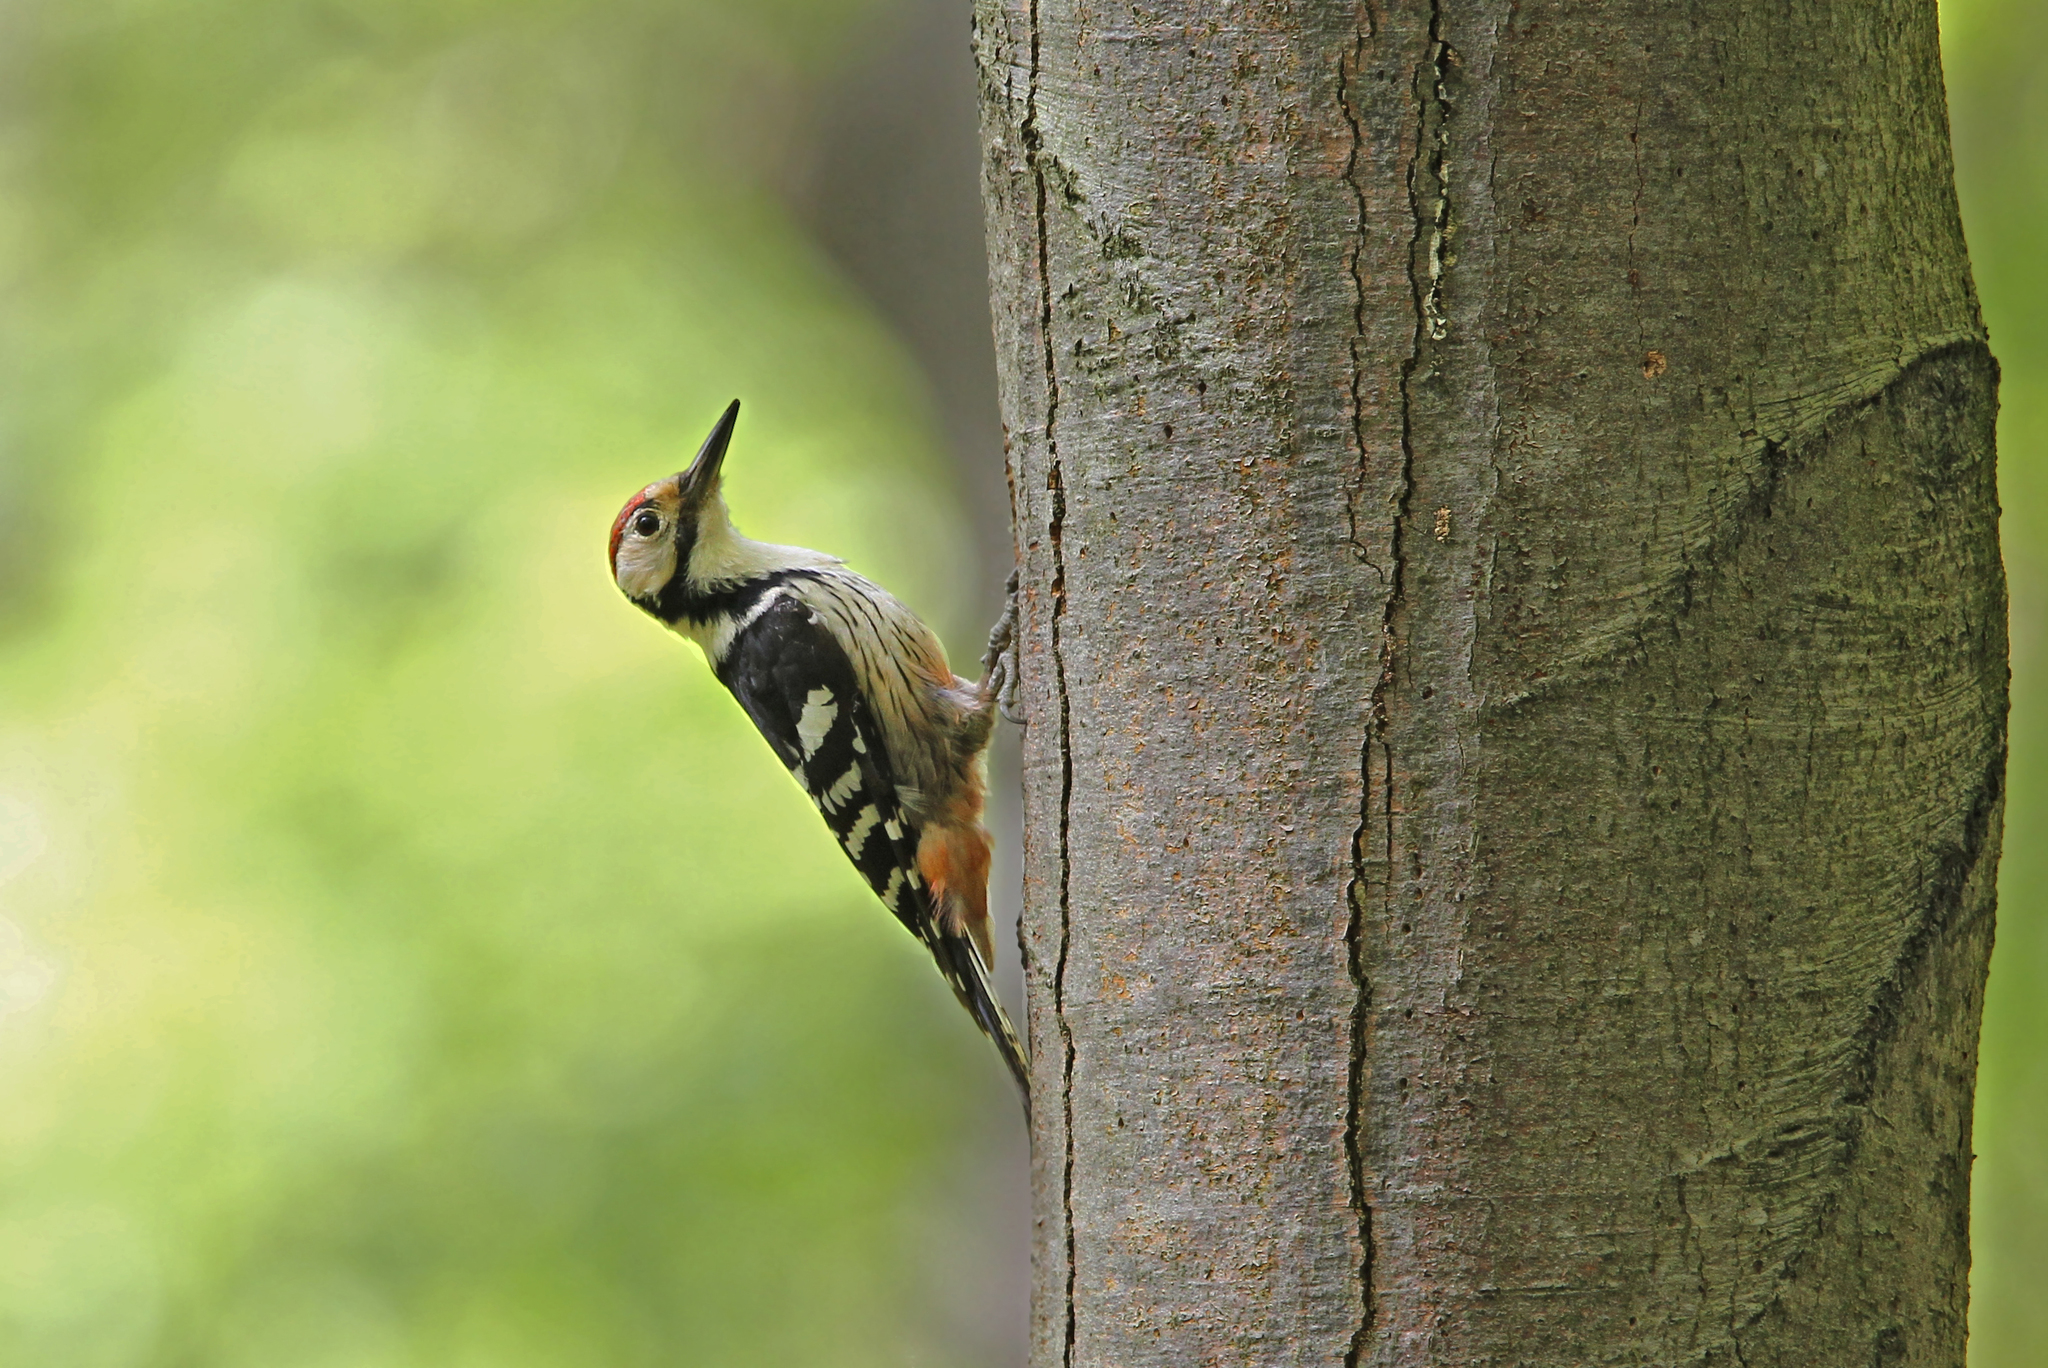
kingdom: Animalia
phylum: Chordata
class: Aves
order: Piciformes
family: Picidae
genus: Dendrocopos
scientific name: Dendrocopos leucotos
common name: White-backed woodpecker
